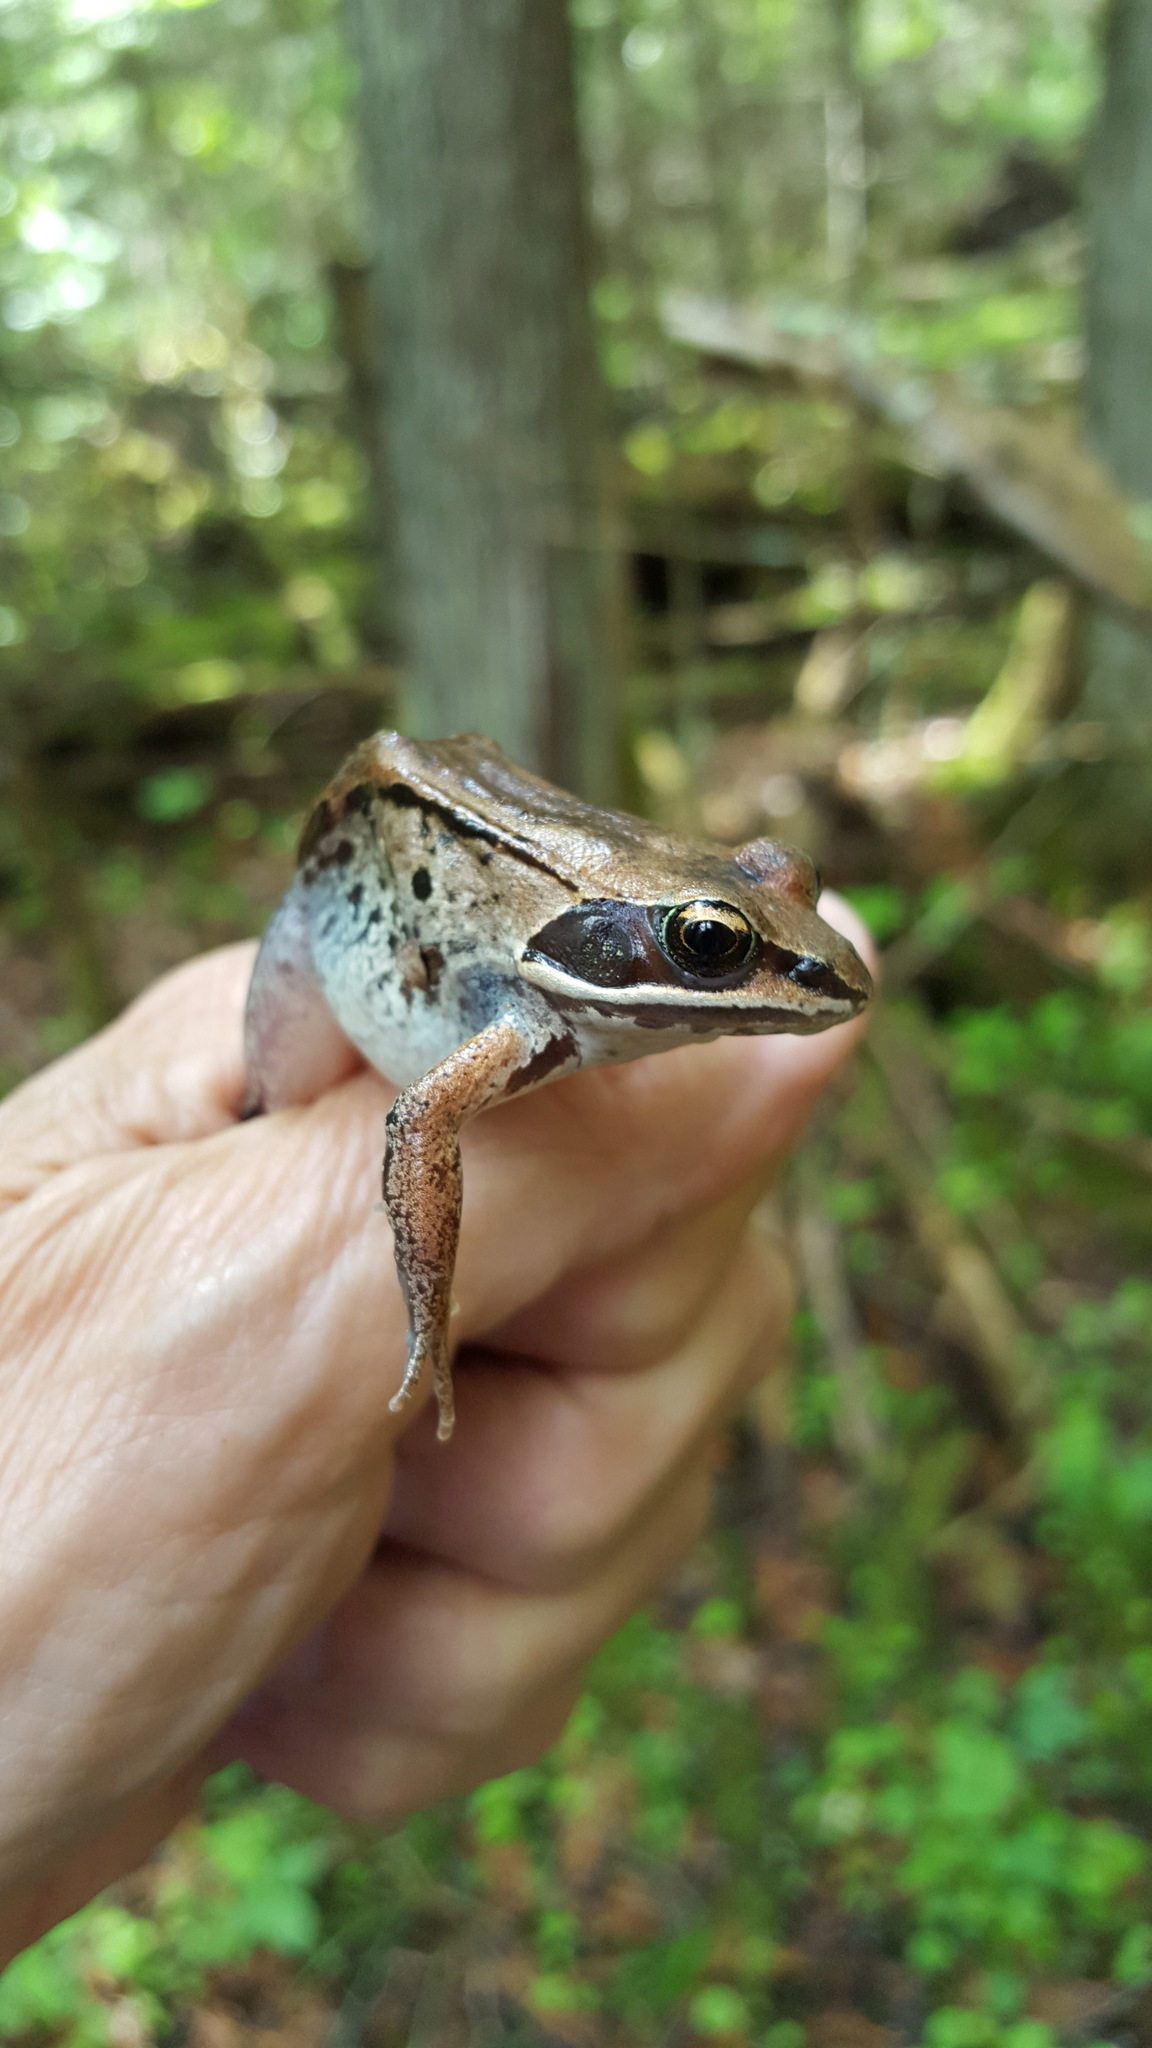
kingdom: Animalia
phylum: Chordata
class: Amphibia
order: Anura
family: Ranidae
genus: Lithobates
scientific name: Lithobates sylvaticus
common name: Wood frog
